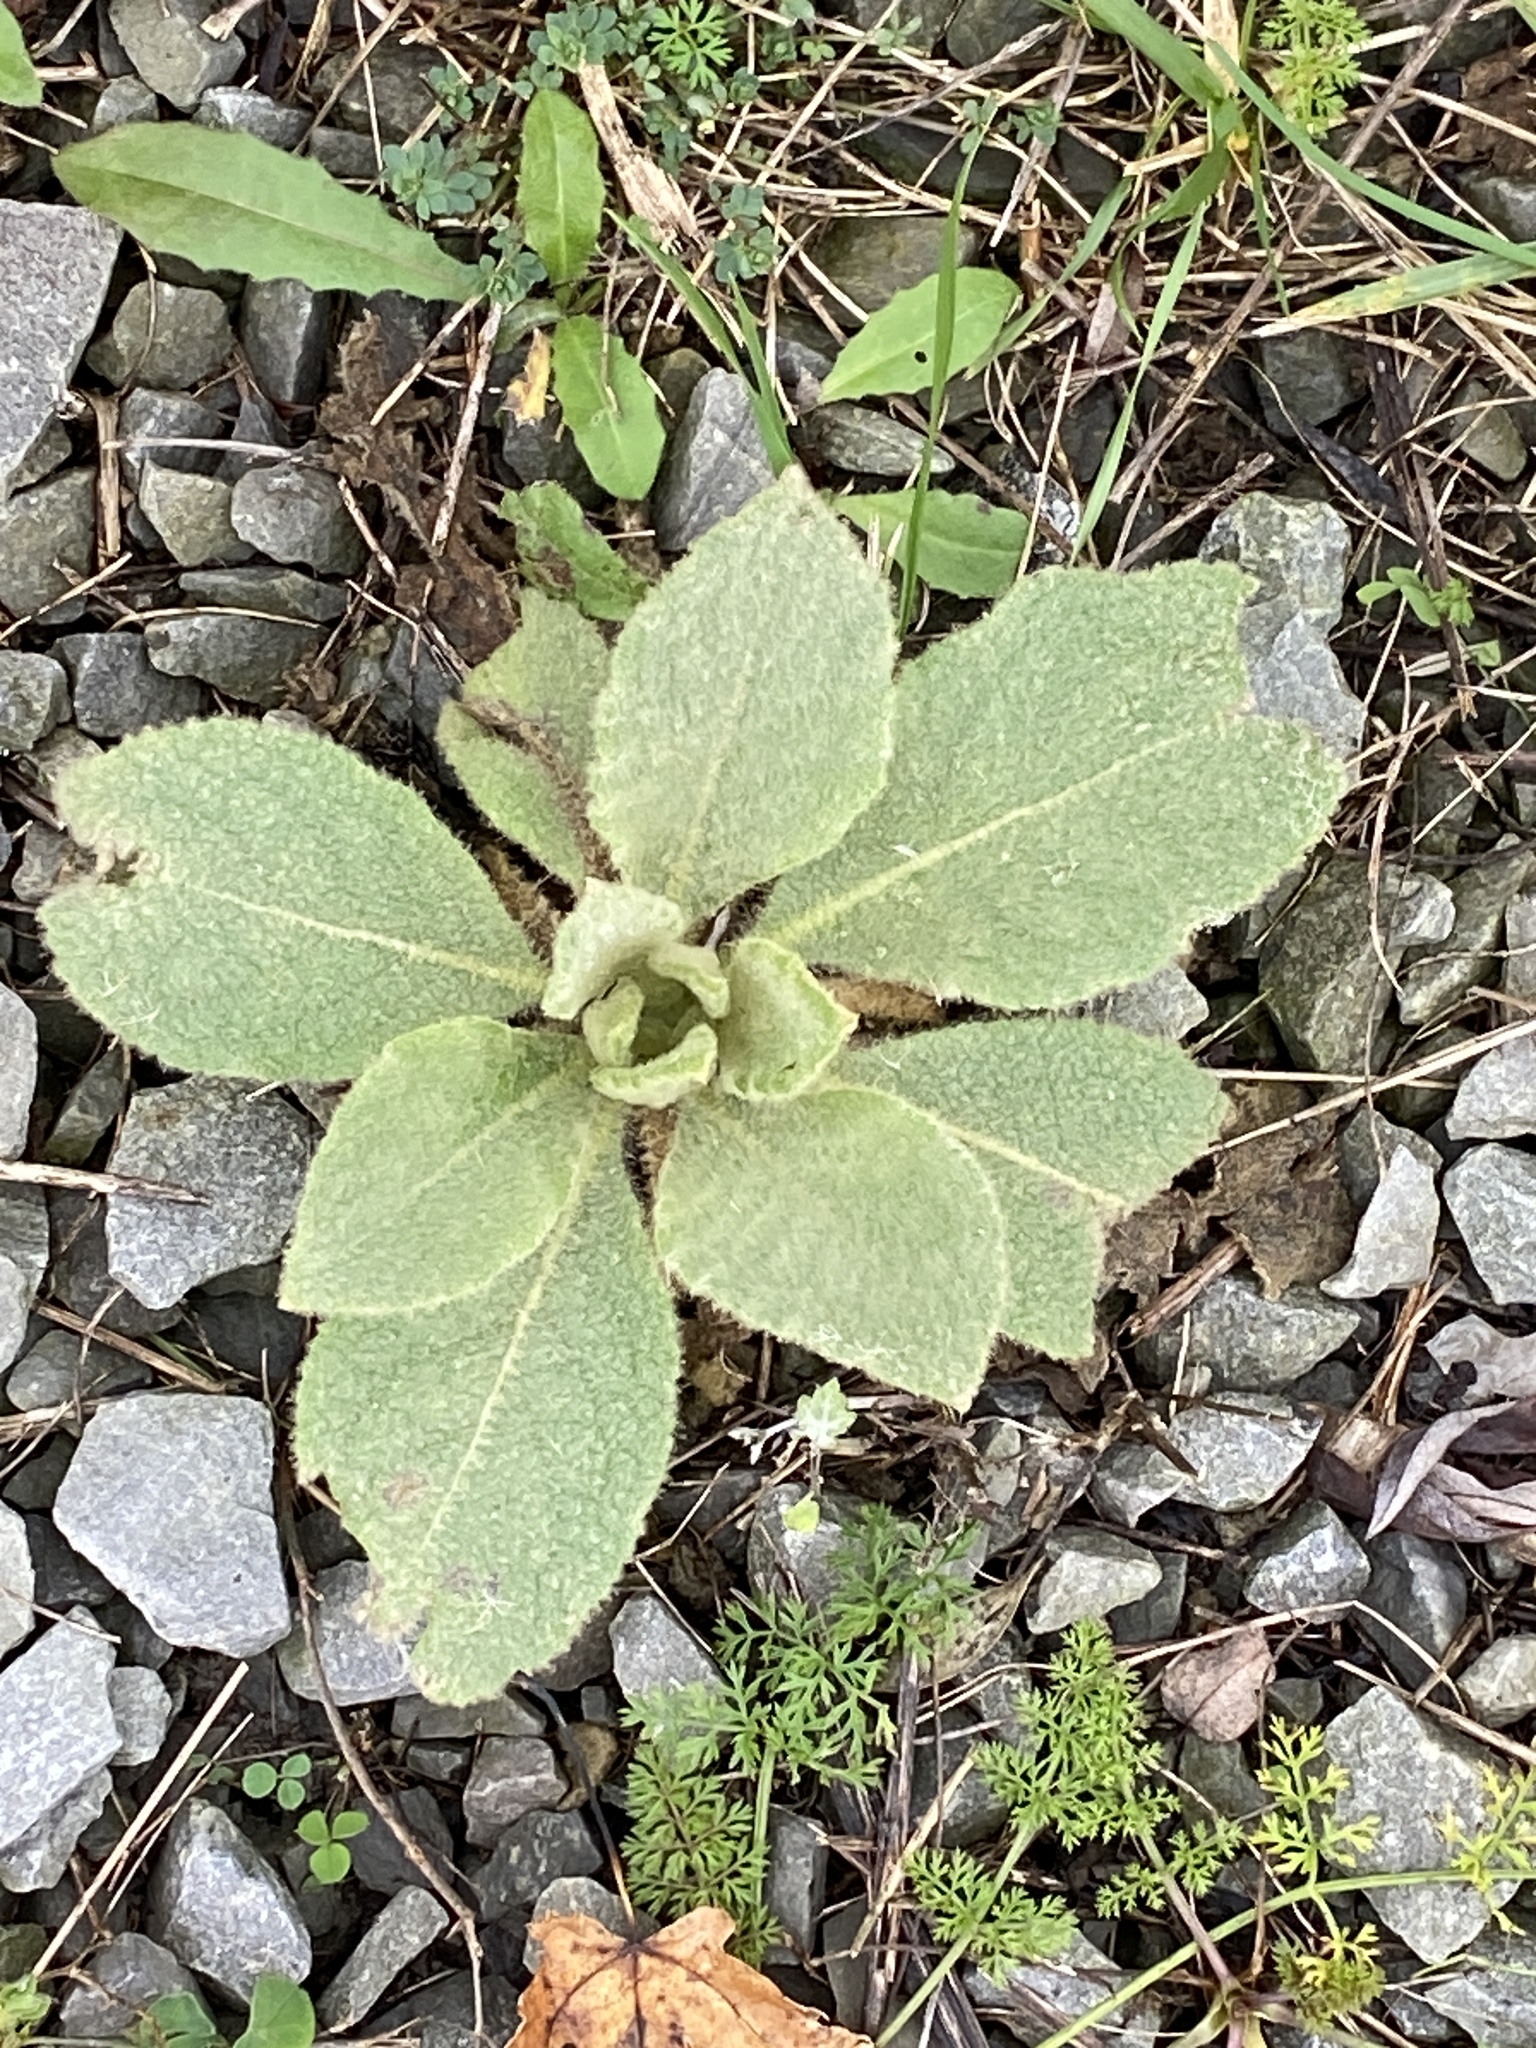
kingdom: Plantae
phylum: Tracheophyta
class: Magnoliopsida
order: Lamiales
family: Scrophulariaceae
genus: Verbascum
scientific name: Verbascum thapsus
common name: Common mullein
